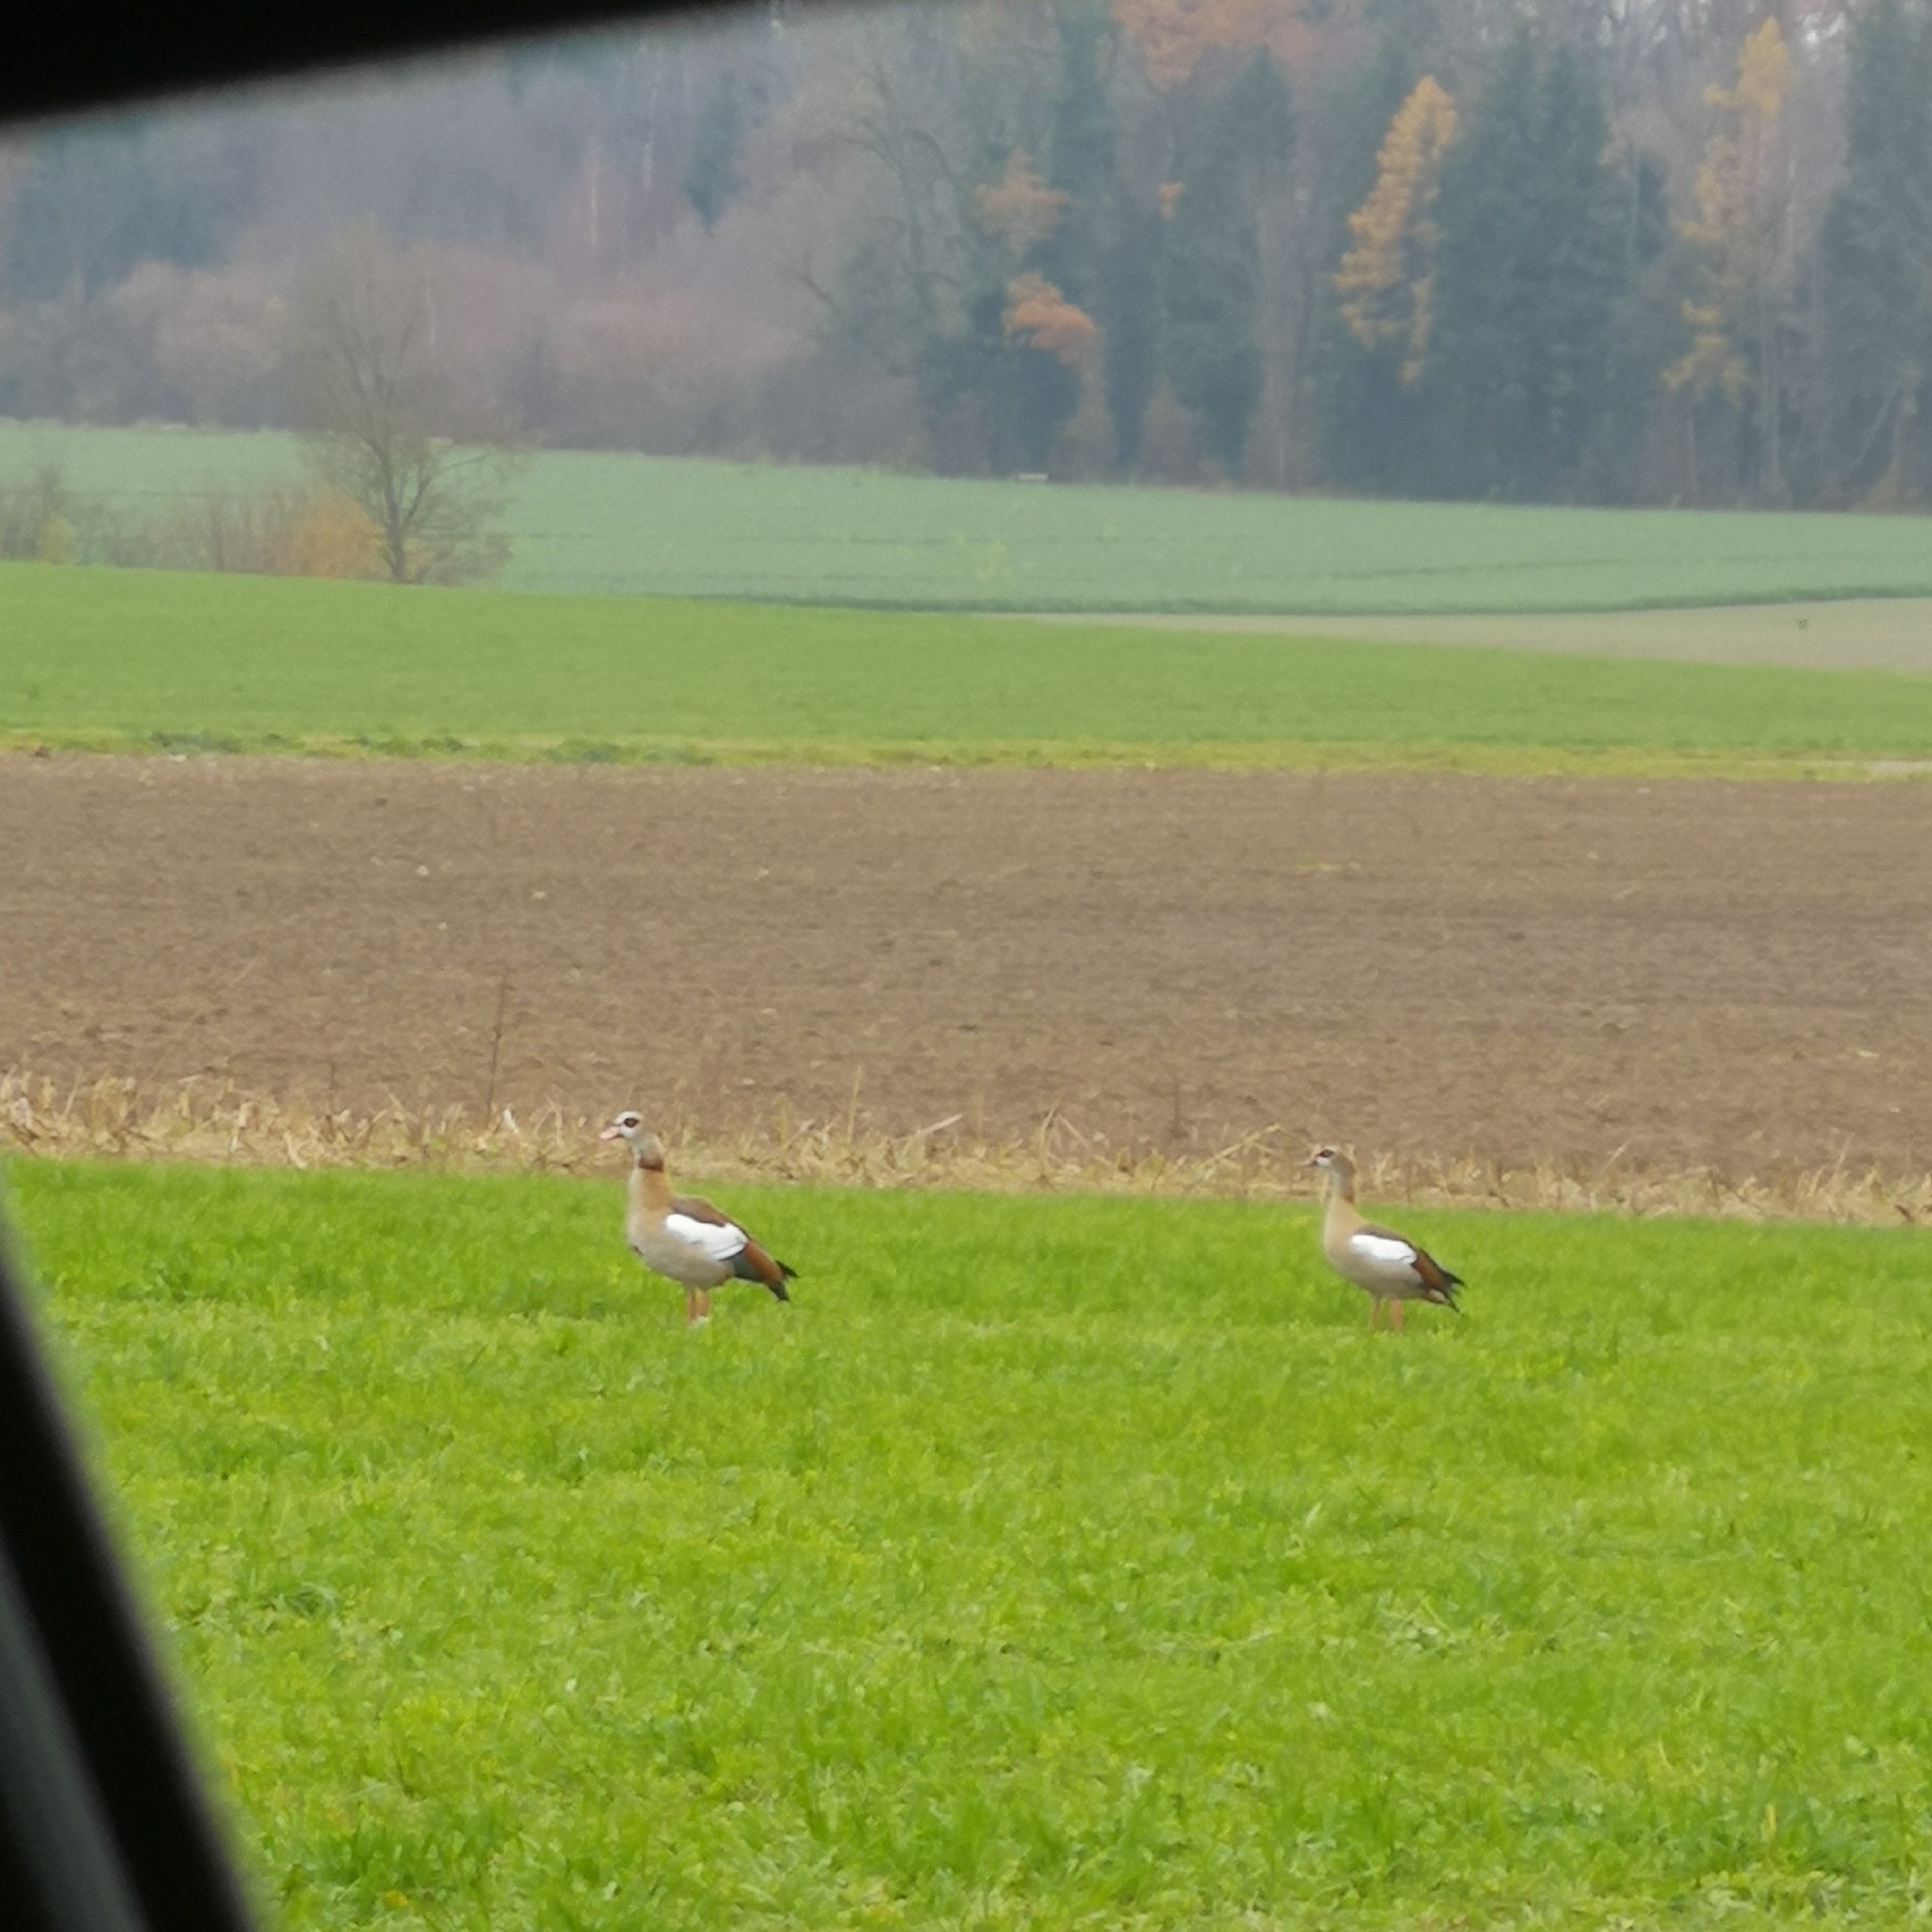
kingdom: Animalia
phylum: Chordata
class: Aves
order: Anseriformes
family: Anatidae
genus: Alopochen
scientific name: Alopochen aegyptiaca
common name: Egyptian goose
